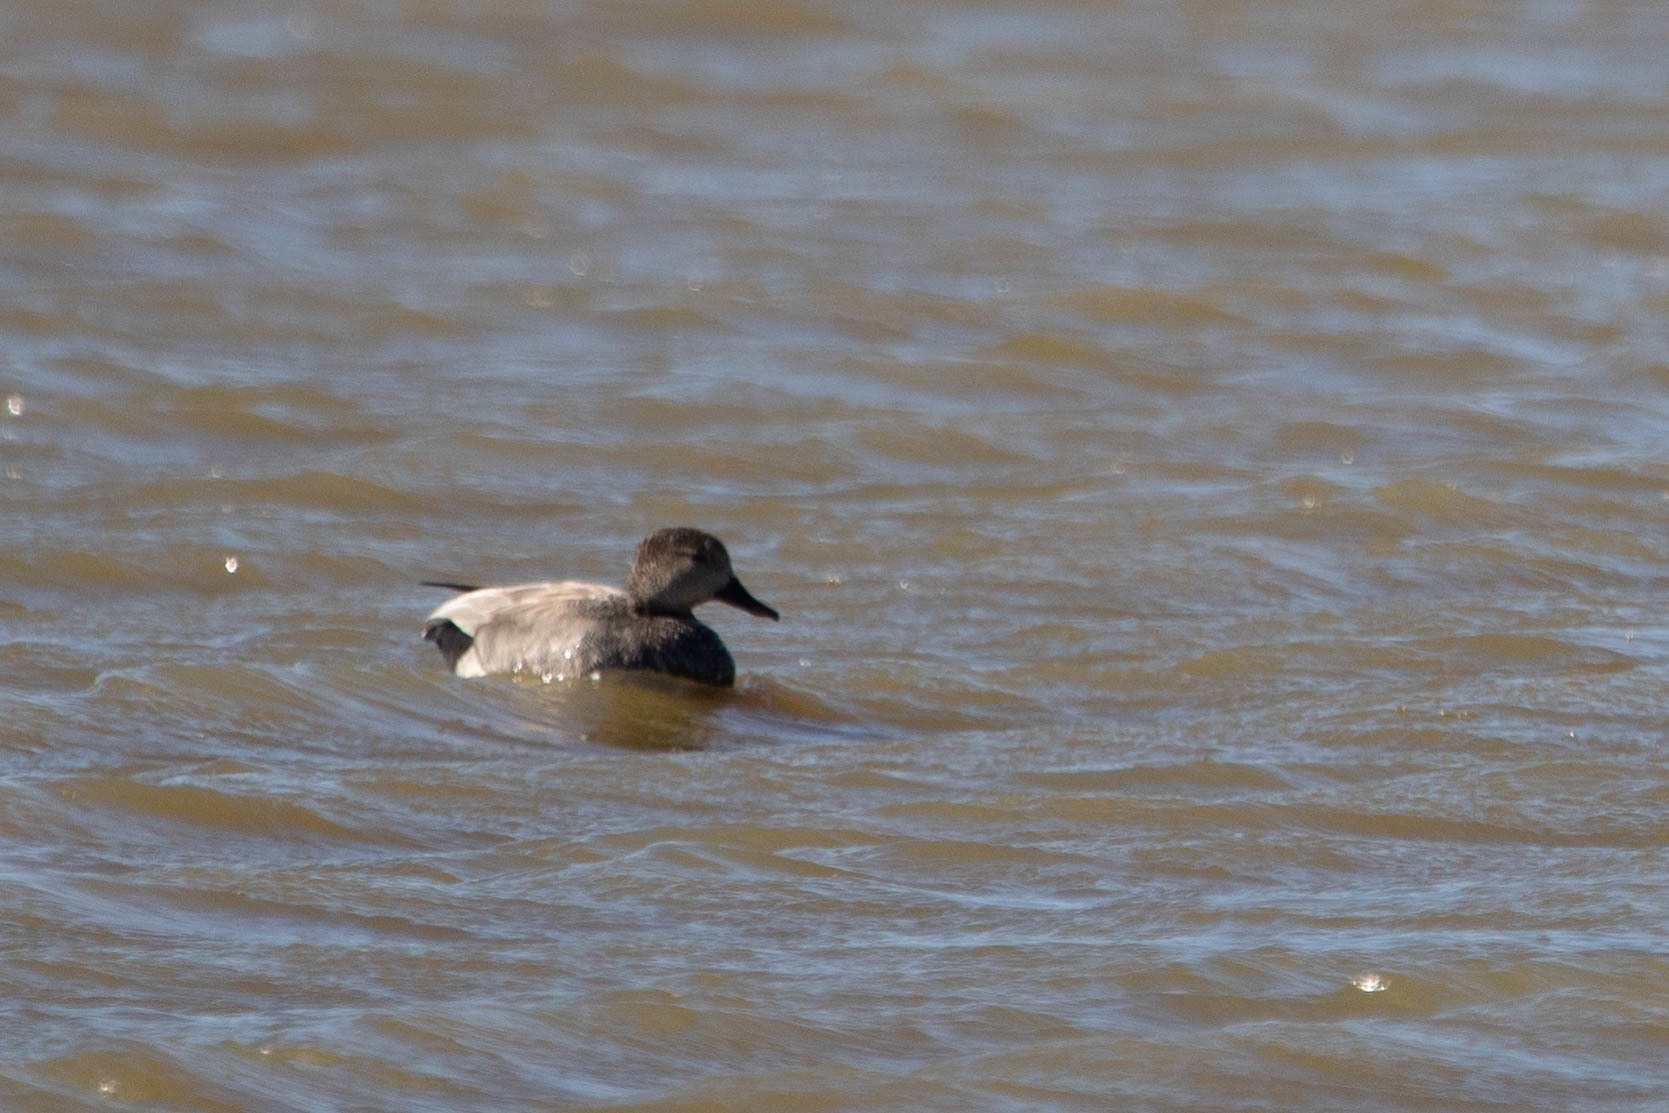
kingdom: Animalia
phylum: Chordata
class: Aves
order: Anseriformes
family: Anatidae
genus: Mareca
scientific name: Mareca strepera
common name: Gadwall
